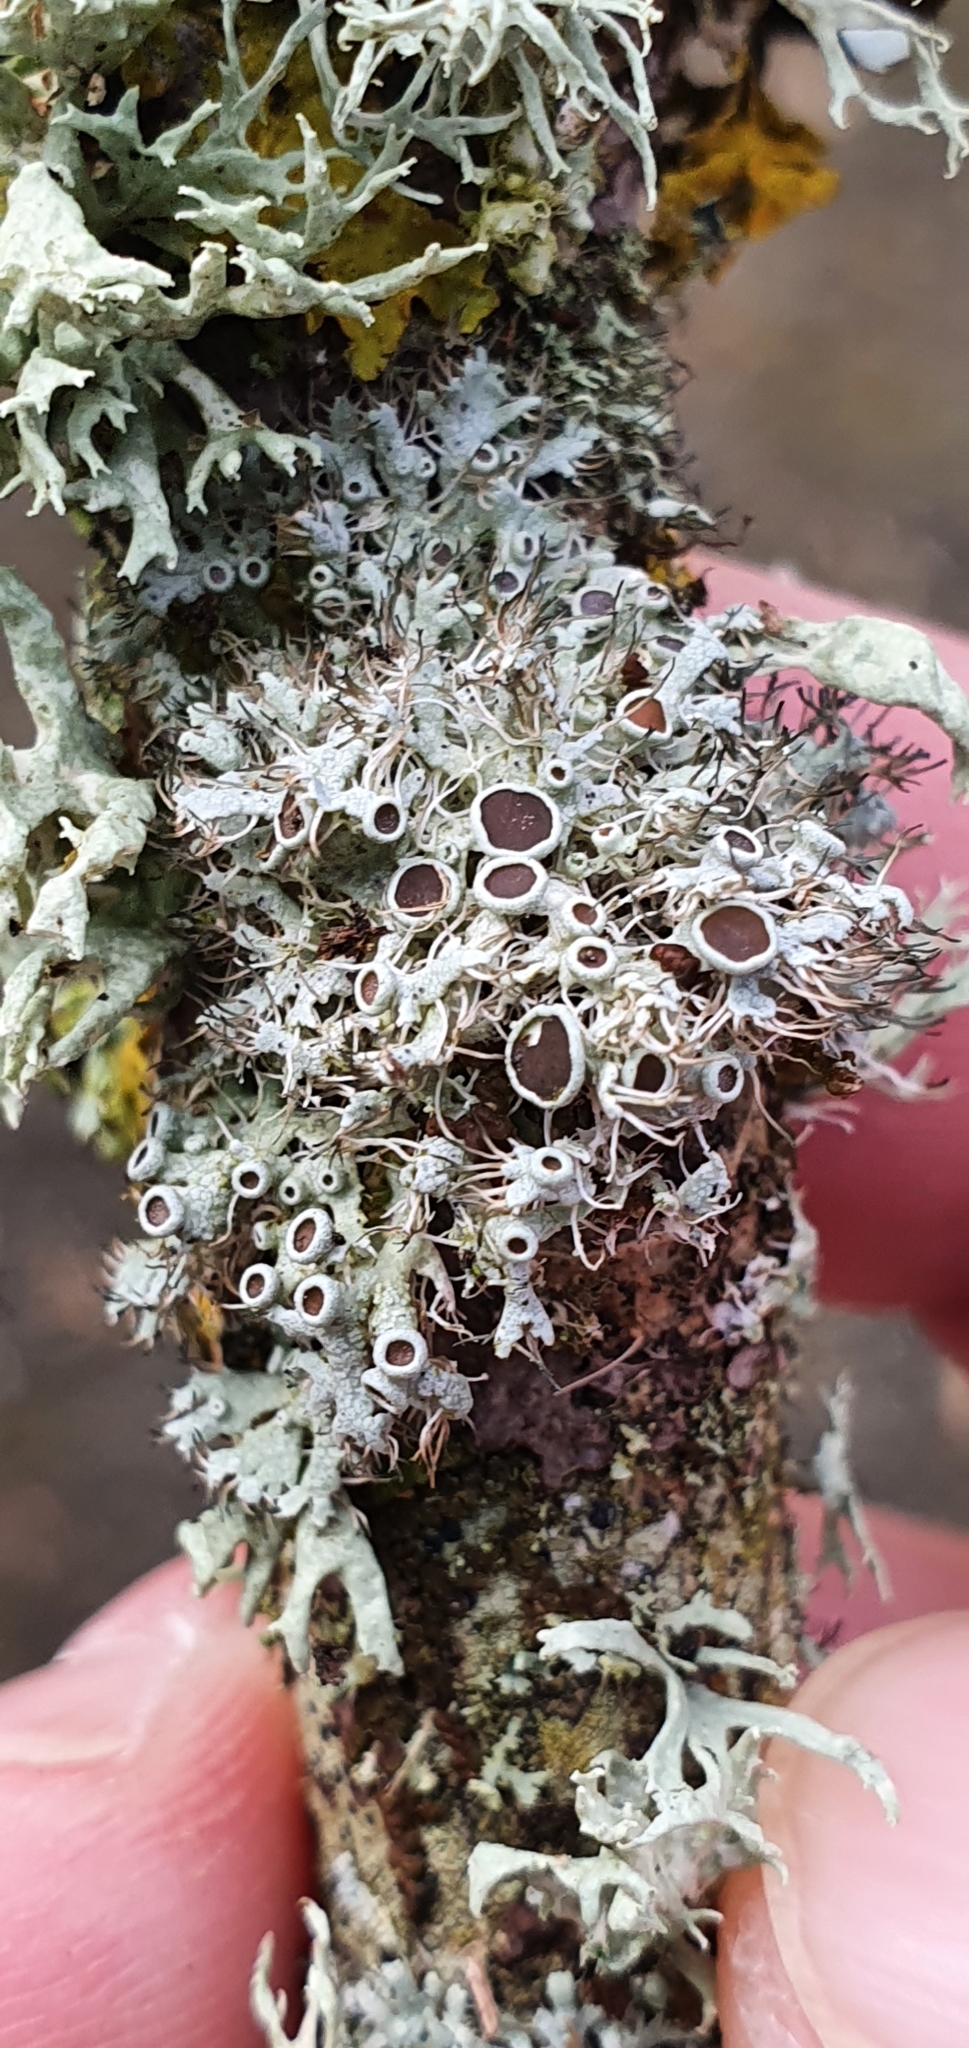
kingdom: Fungi
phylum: Ascomycota
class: Lecanoromycetes
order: Caliciales
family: Physciaceae
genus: Physcia
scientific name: Physcia leptalea
